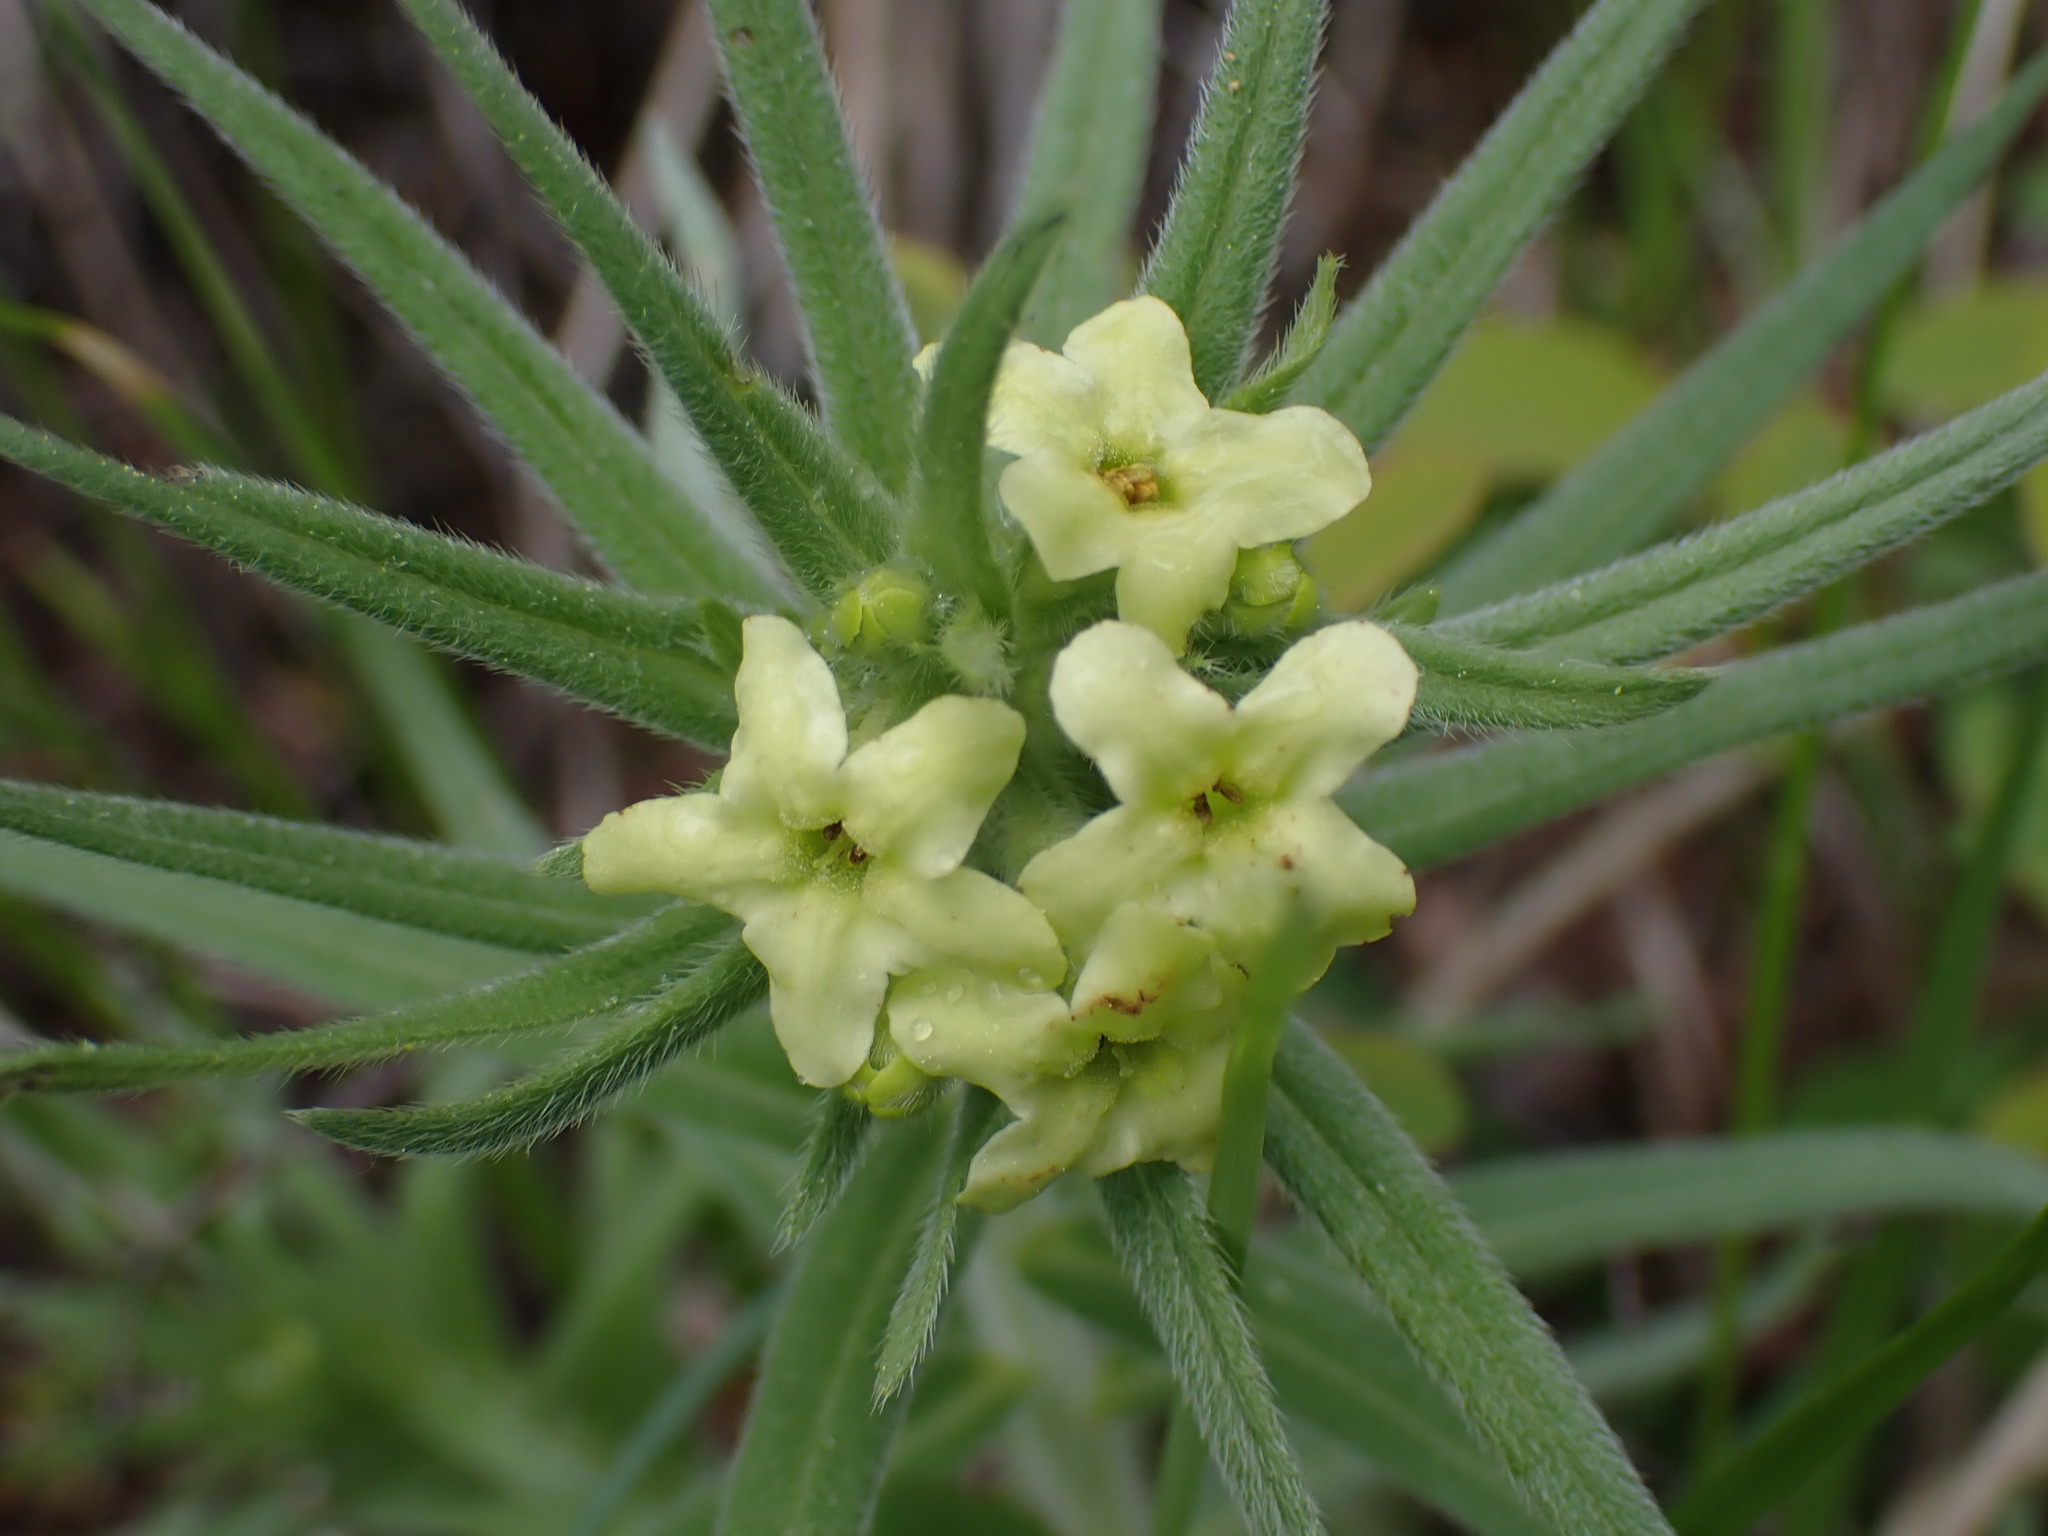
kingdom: Plantae
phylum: Tracheophyta
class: Magnoliopsida
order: Boraginales
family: Boraginaceae
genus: Lithospermum
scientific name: Lithospermum ruderale
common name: Western gromwell
